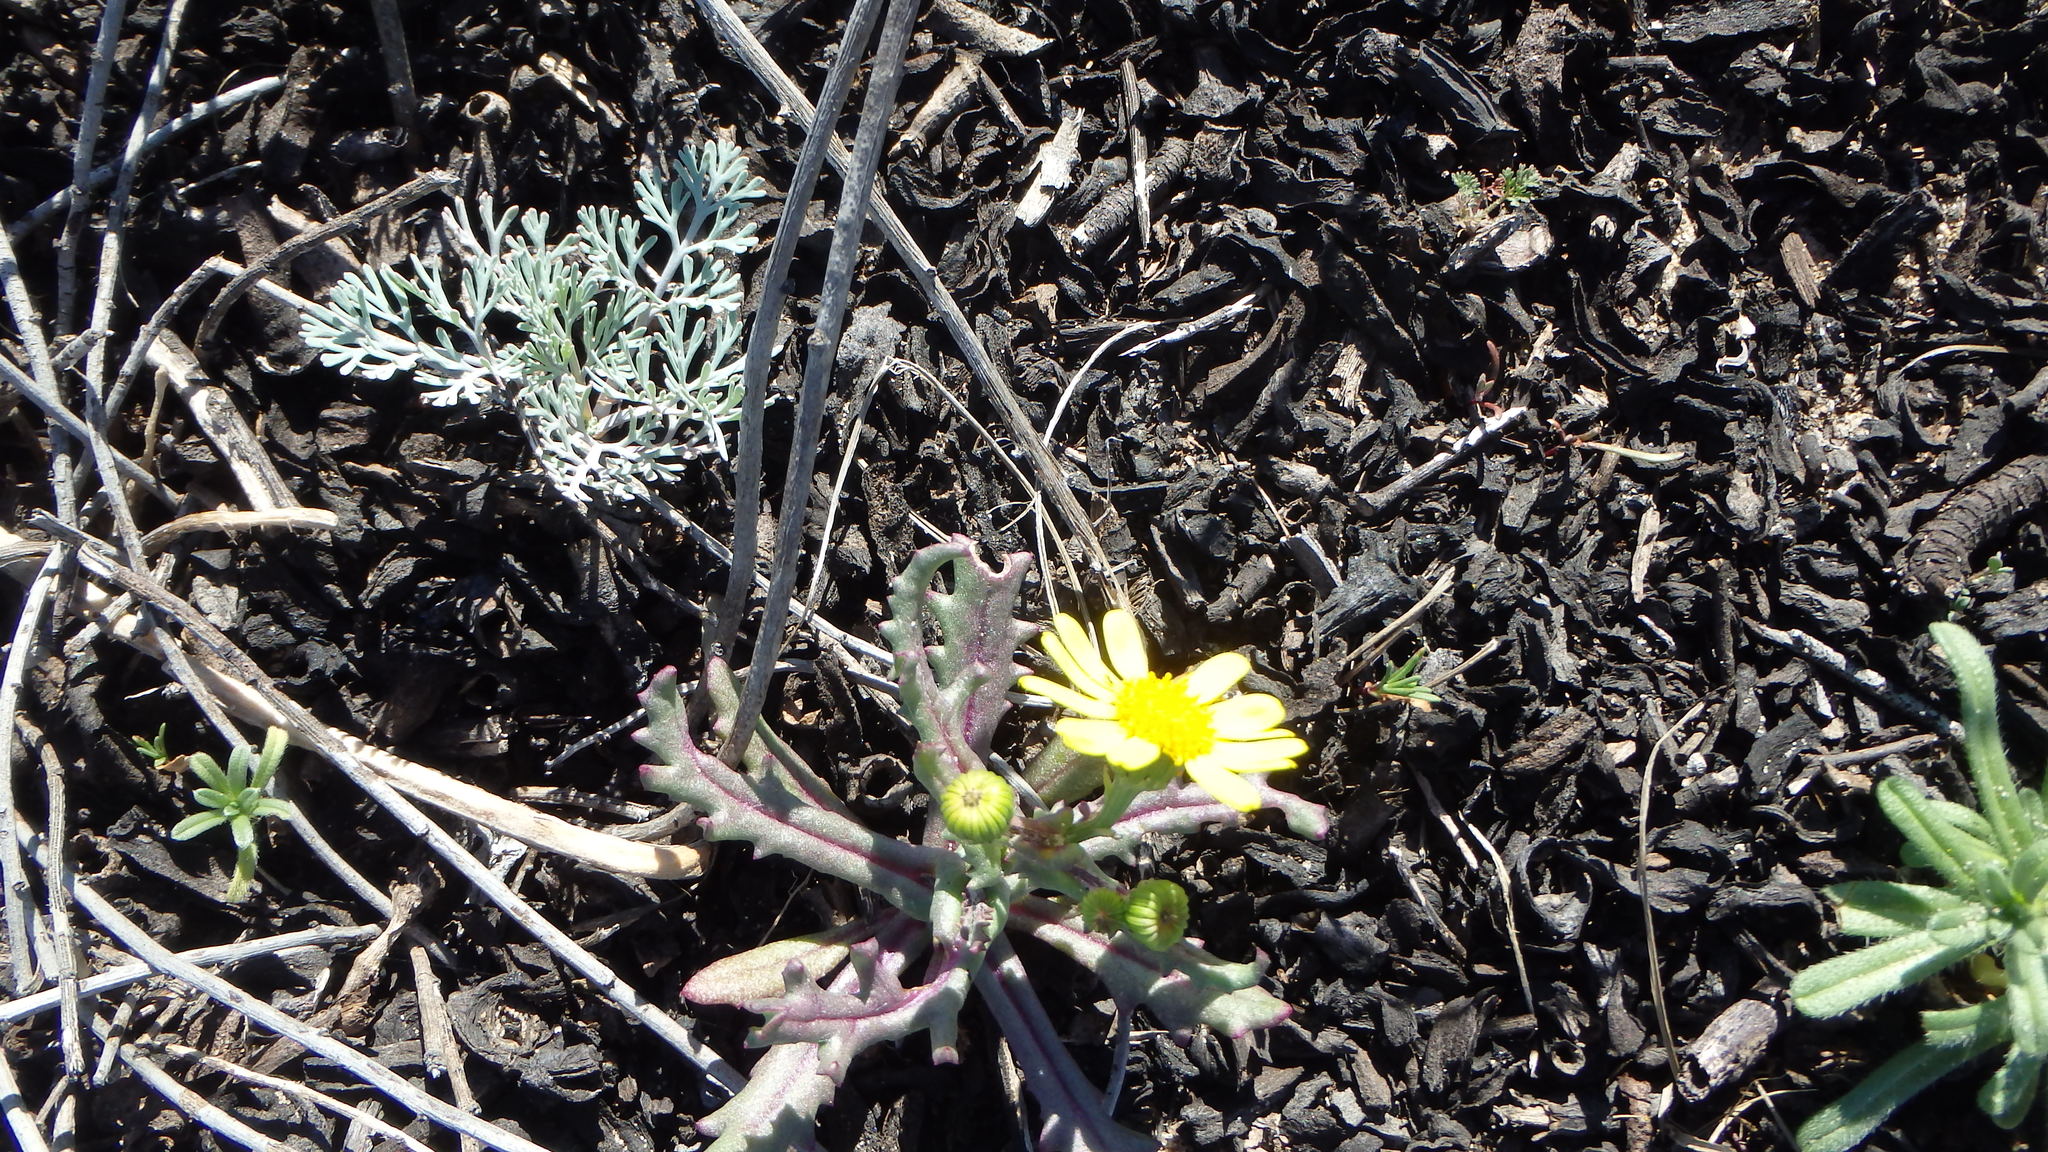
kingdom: Plantae
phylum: Tracheophyta
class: Magnoliopsida
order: Asterales
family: Asteraceae
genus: Senecio
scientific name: Senecio californicus
